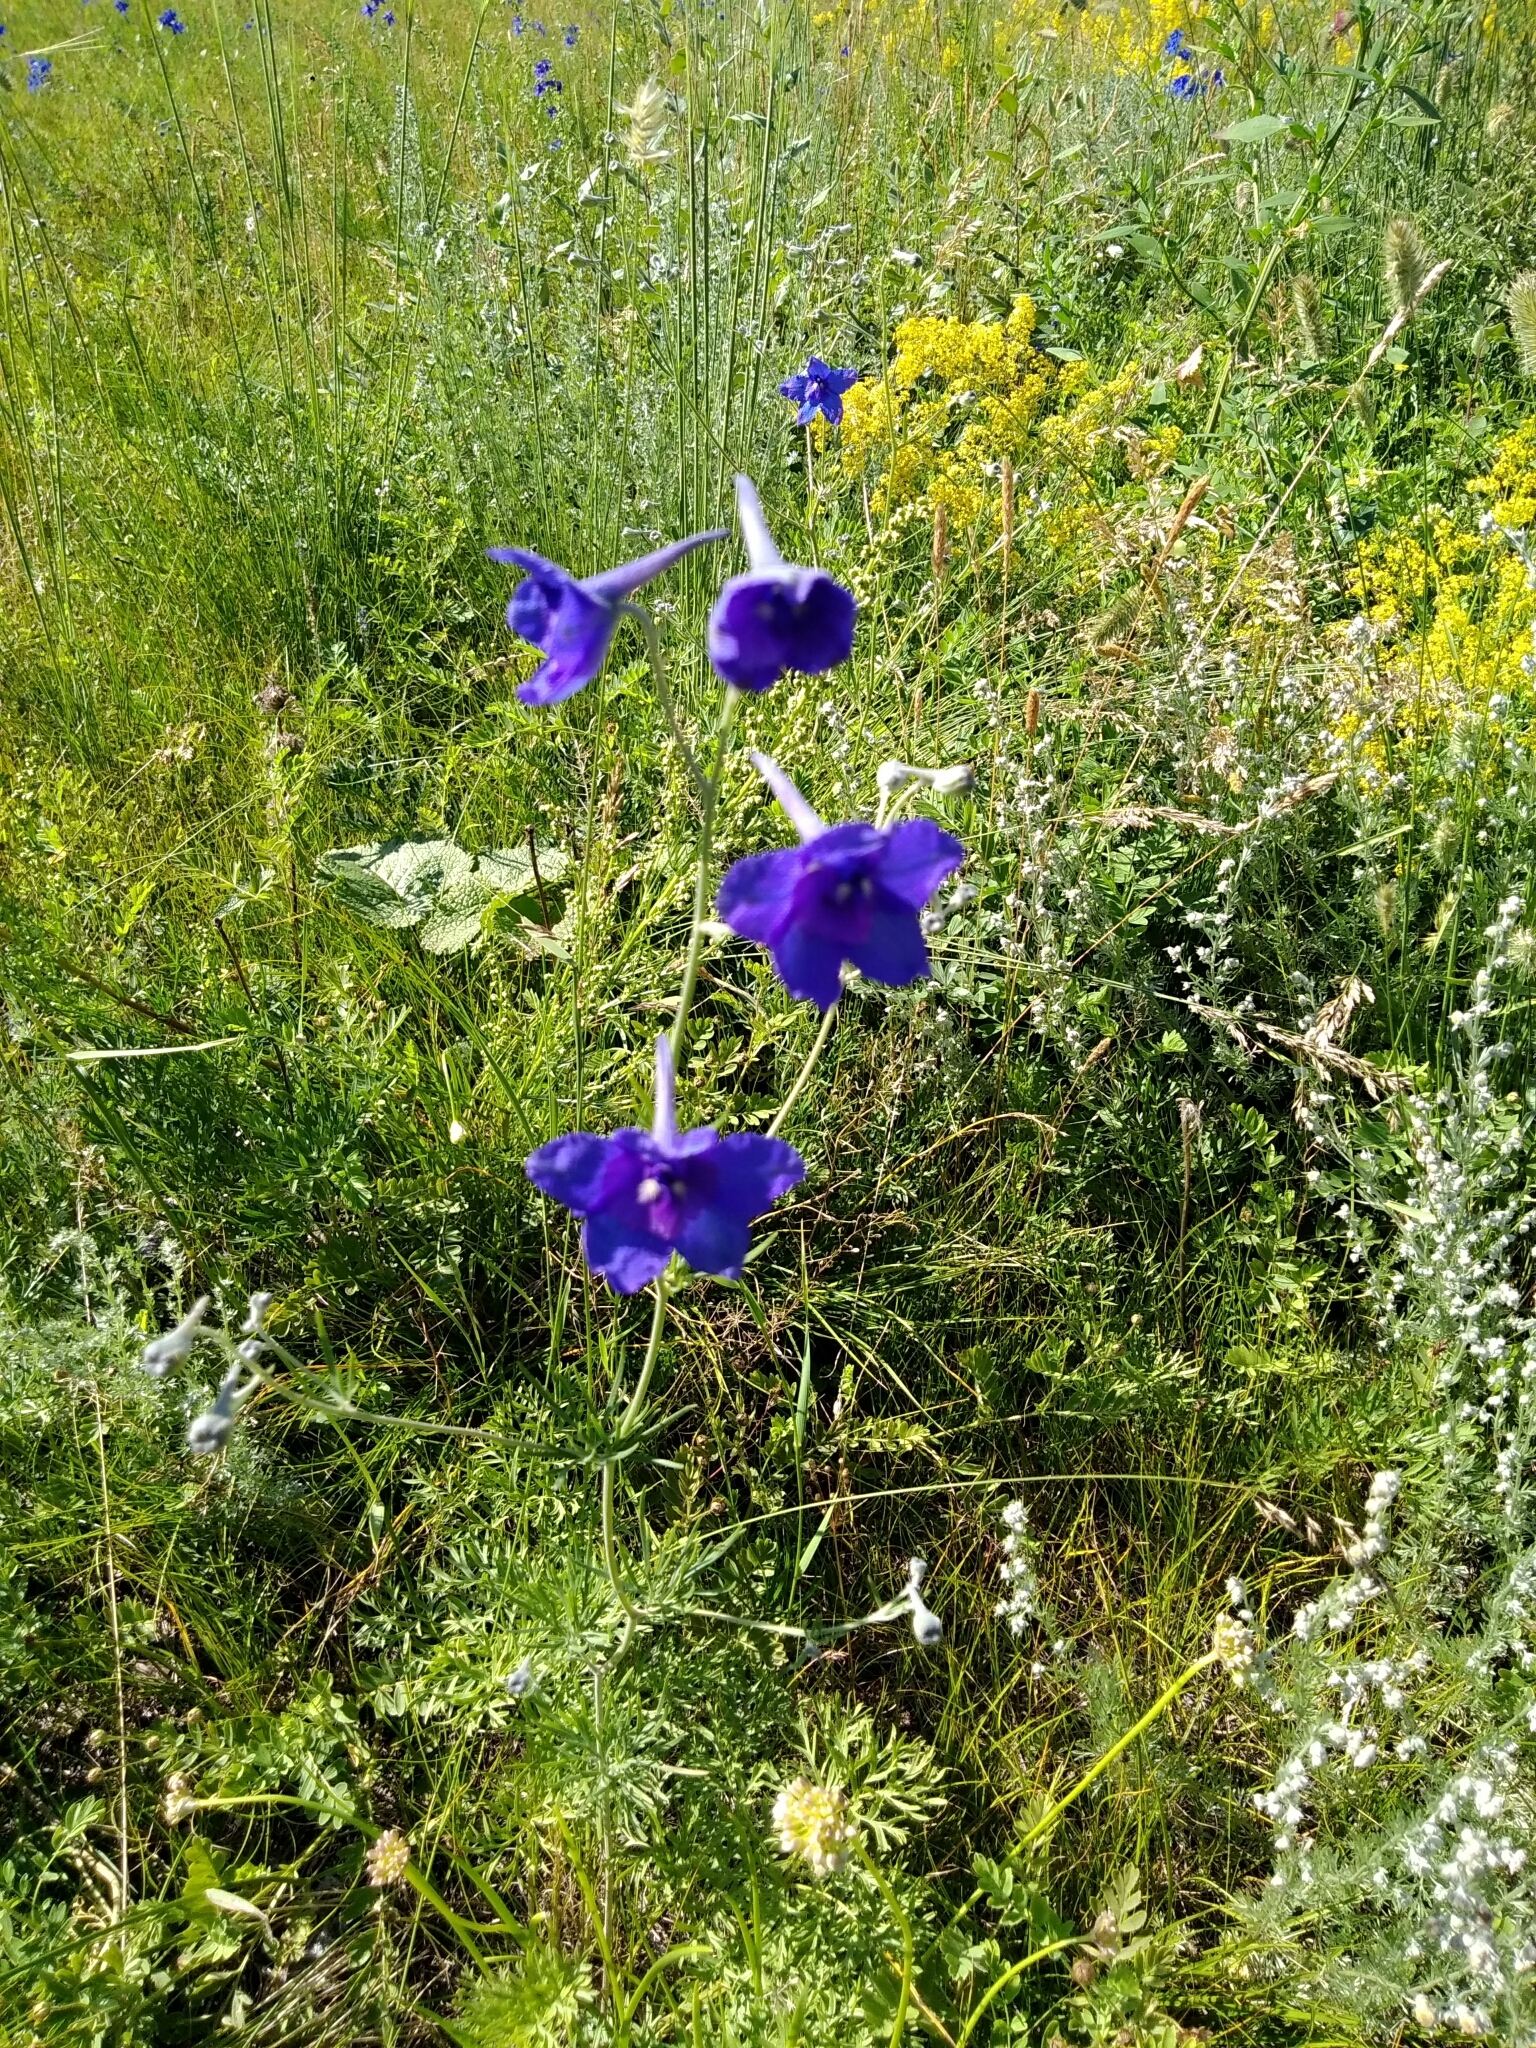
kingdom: Plantae
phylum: Tracheophyta
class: Magnoliopsida
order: Ranunculales
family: Ranunculaceae
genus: Delphinium
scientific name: Delphinium grandiflorum
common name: Siberian larkspur
